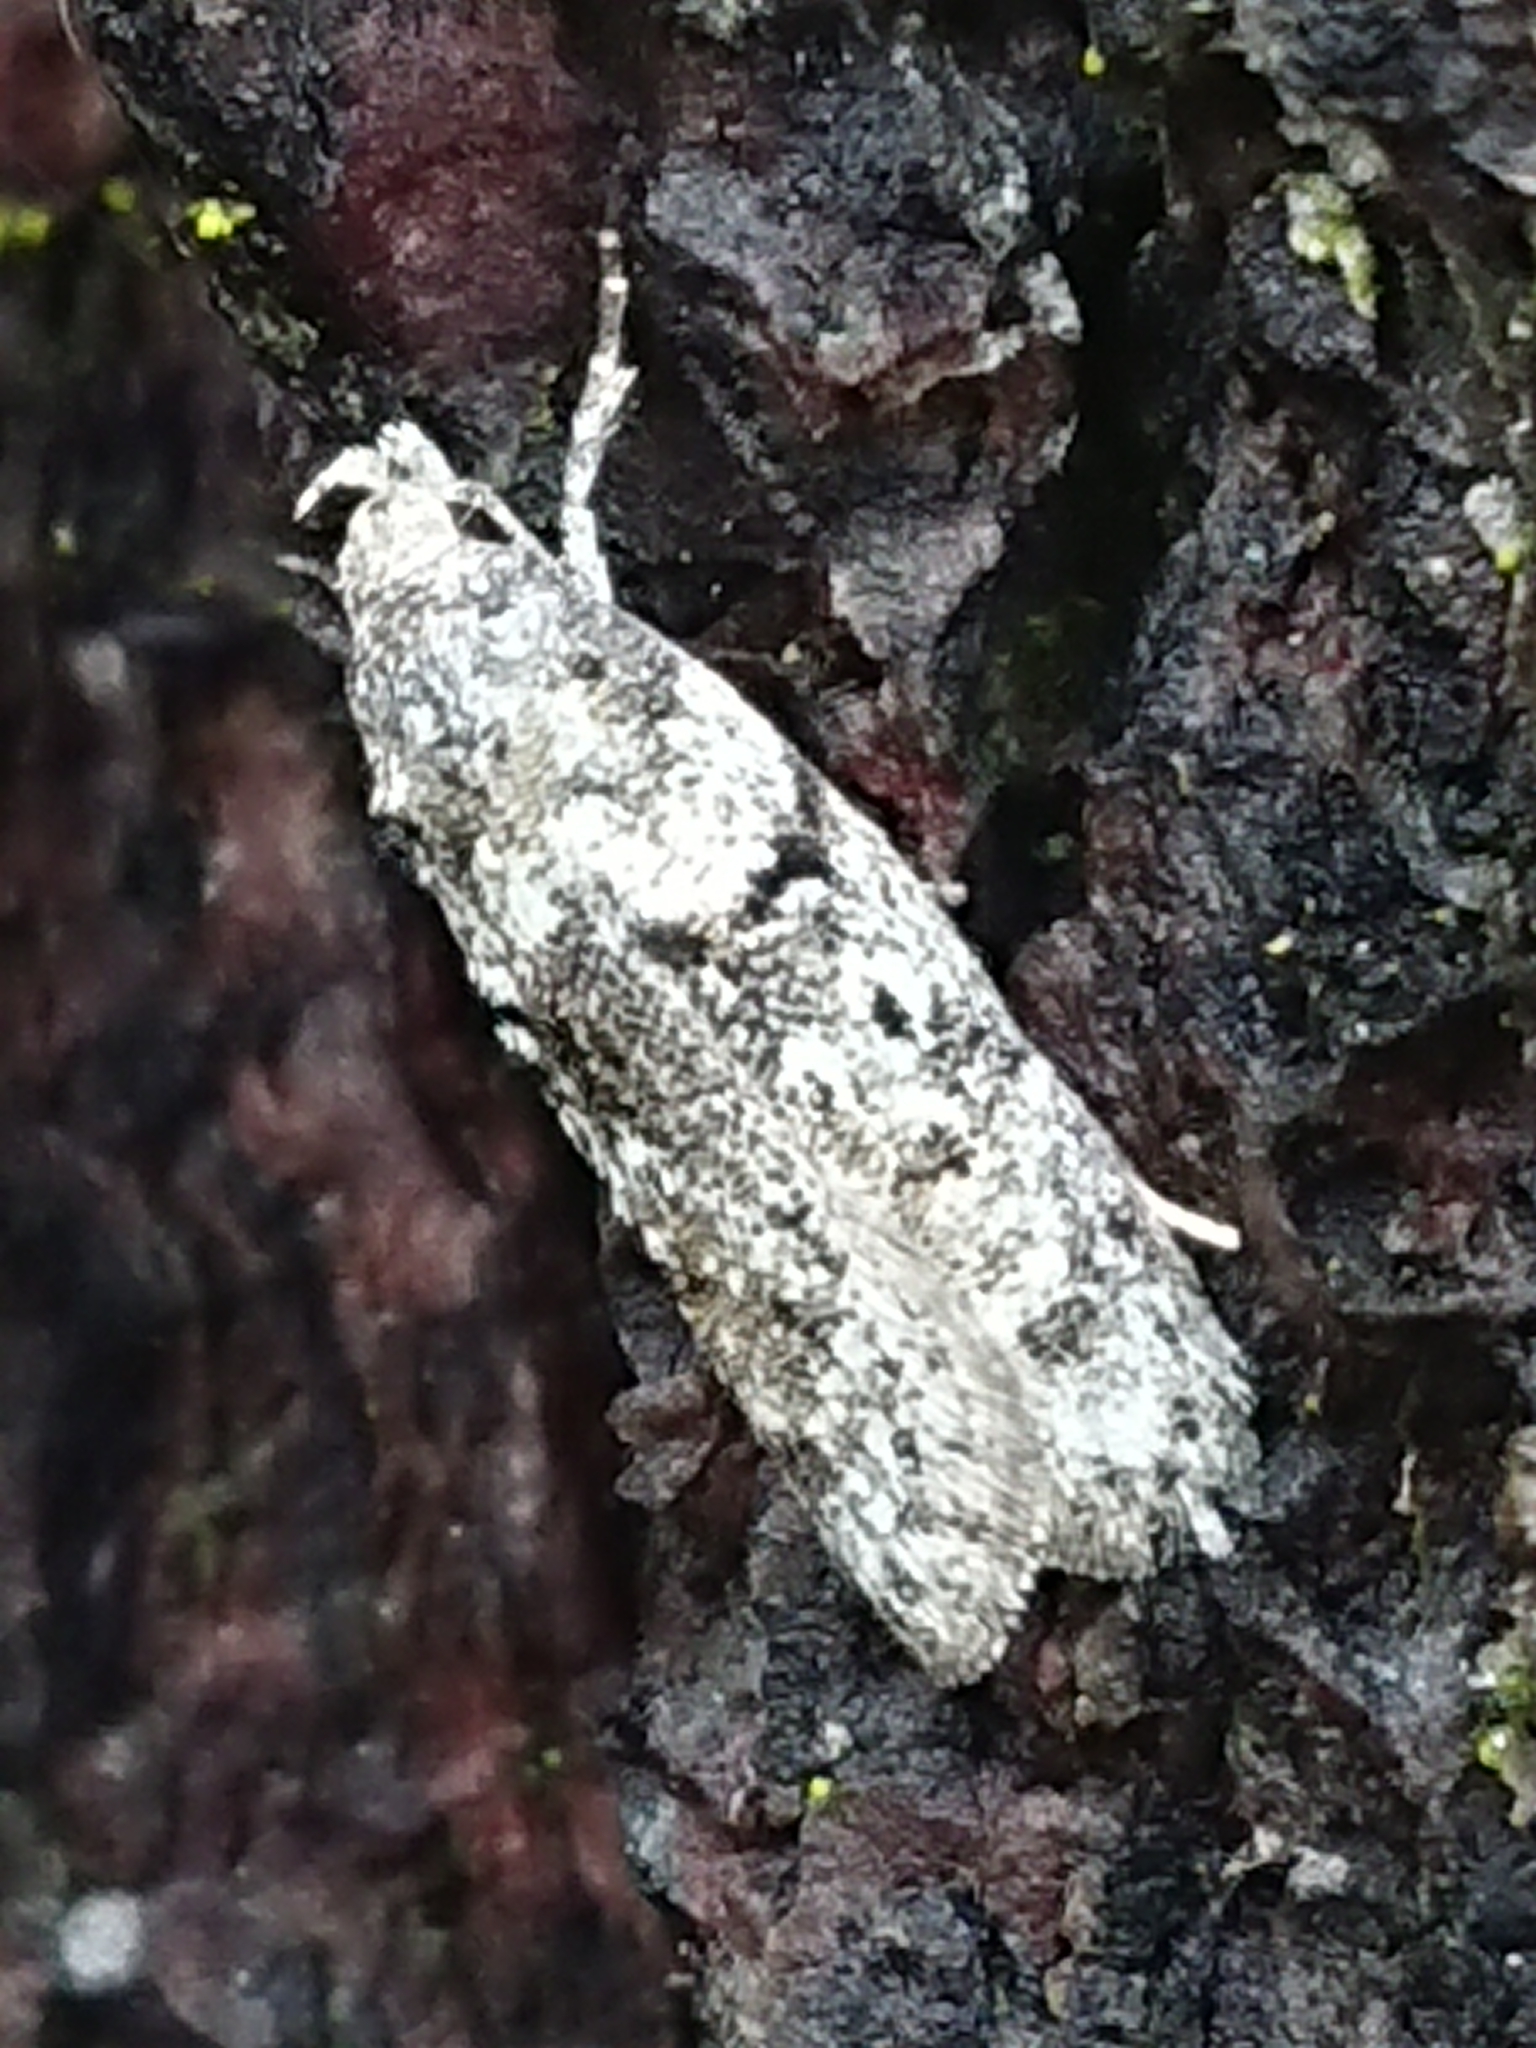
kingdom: Animalia
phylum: Arthropoda
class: Insecta
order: Lepidoptera
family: Oecophoridae
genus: Izatha
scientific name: Izatha convulsella
